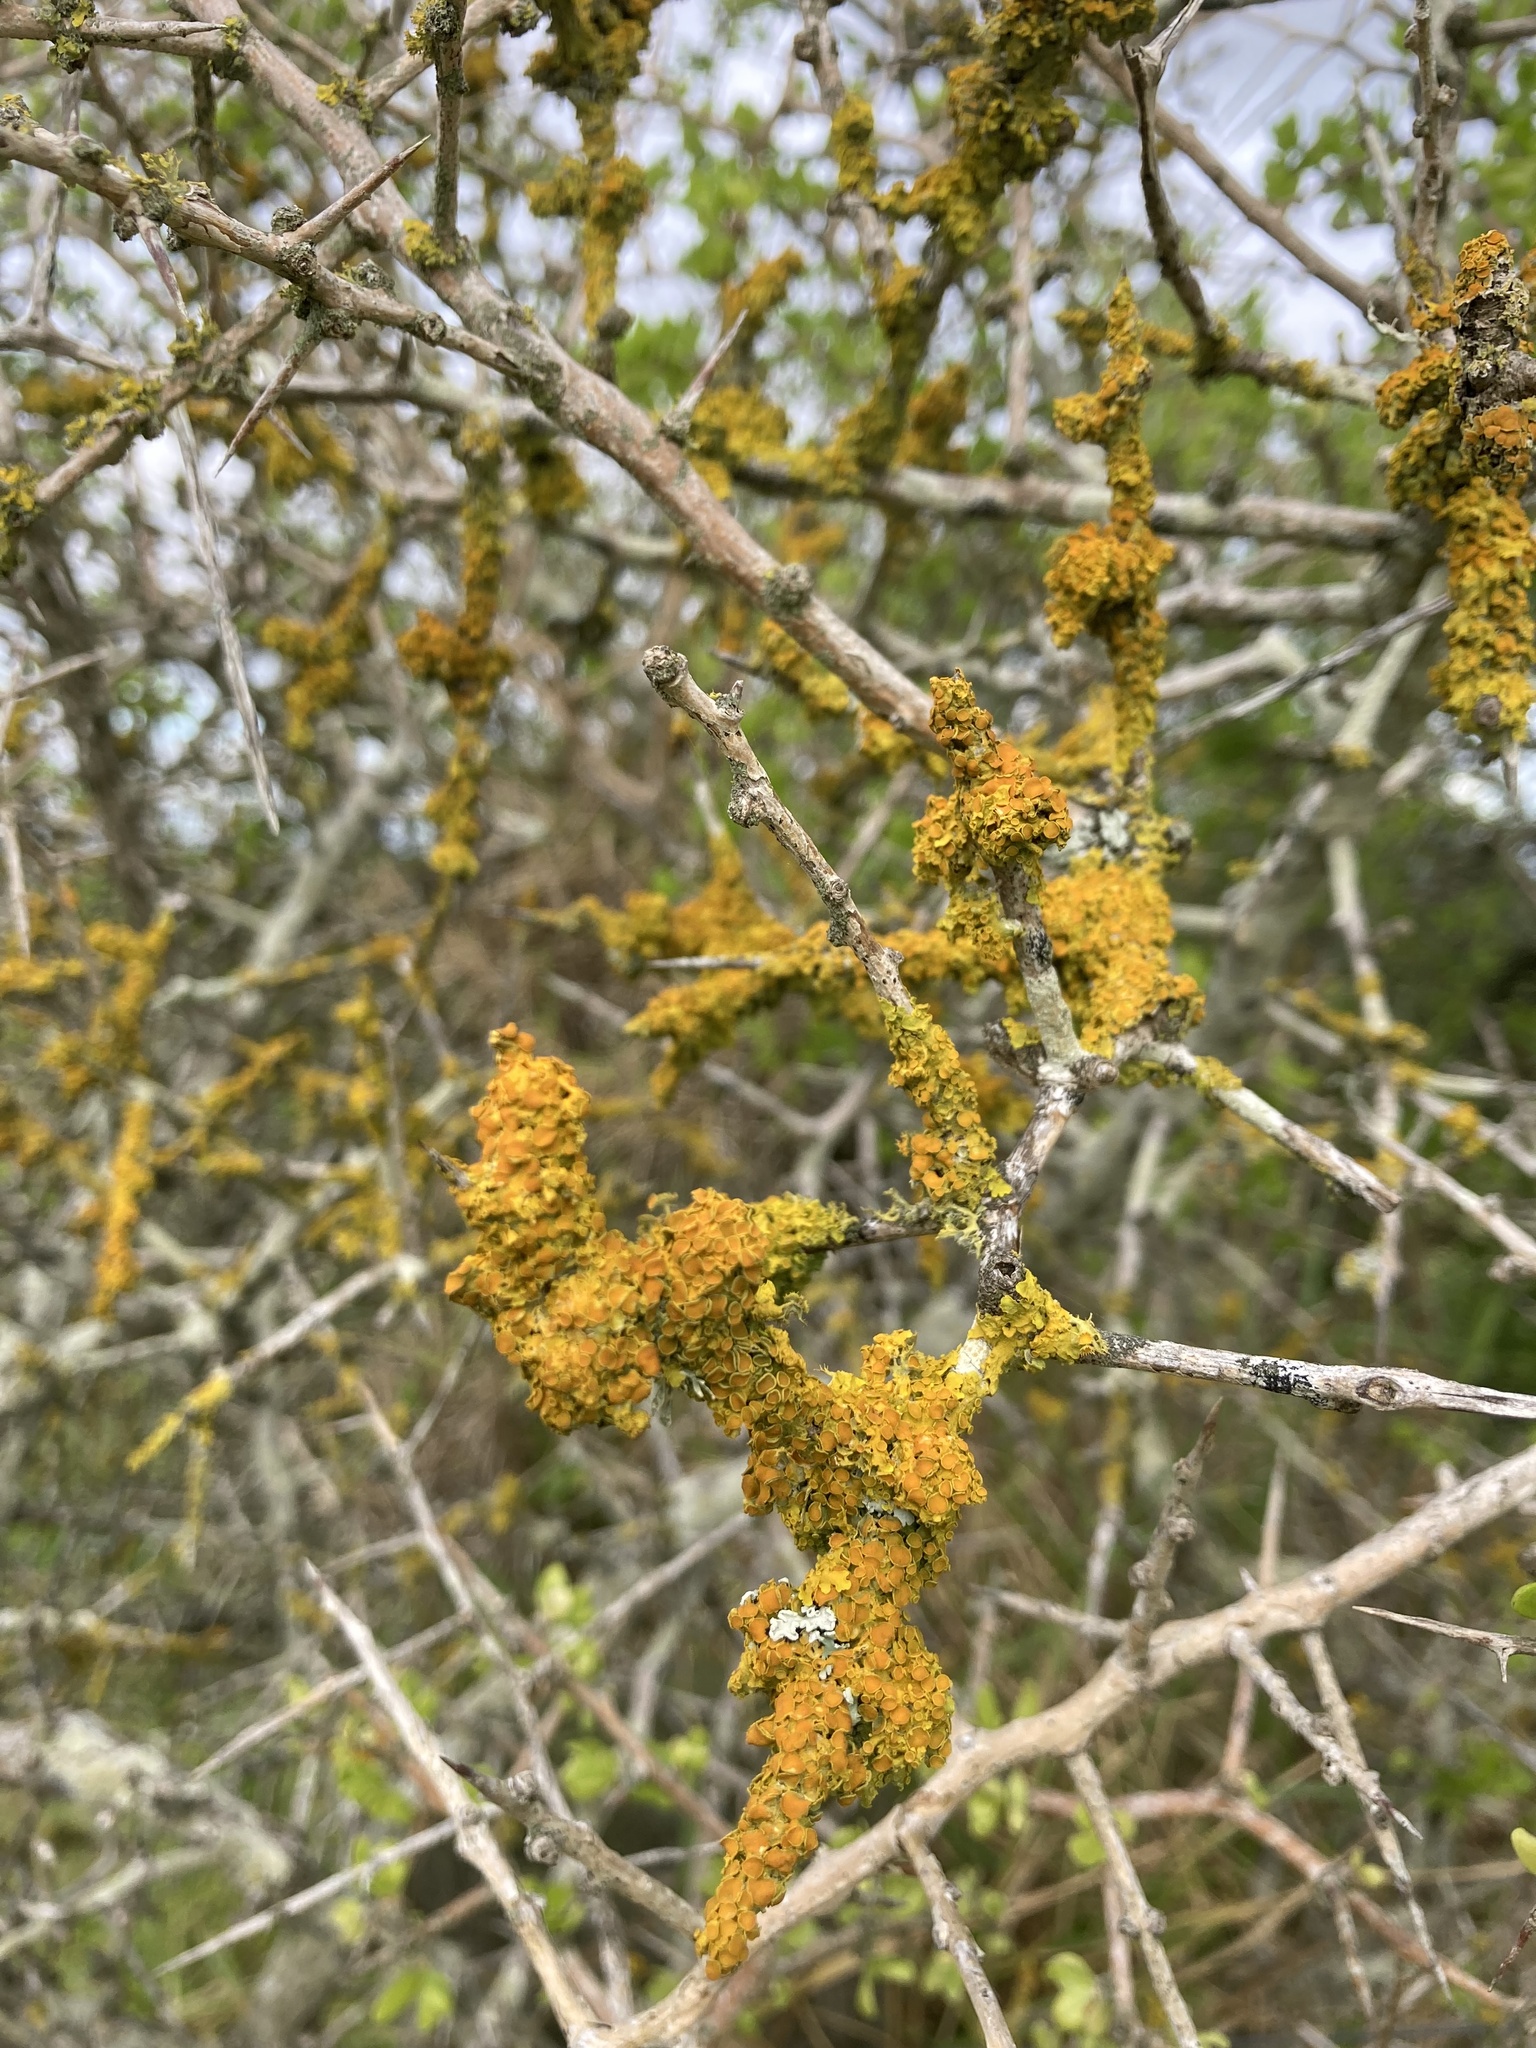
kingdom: Fungi
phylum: Ascomycota
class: Lecanoromycetes
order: Teloschistales
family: Teloschistaceae
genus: Xanthoria
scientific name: Xanthoria parietina
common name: Common orange lichen
